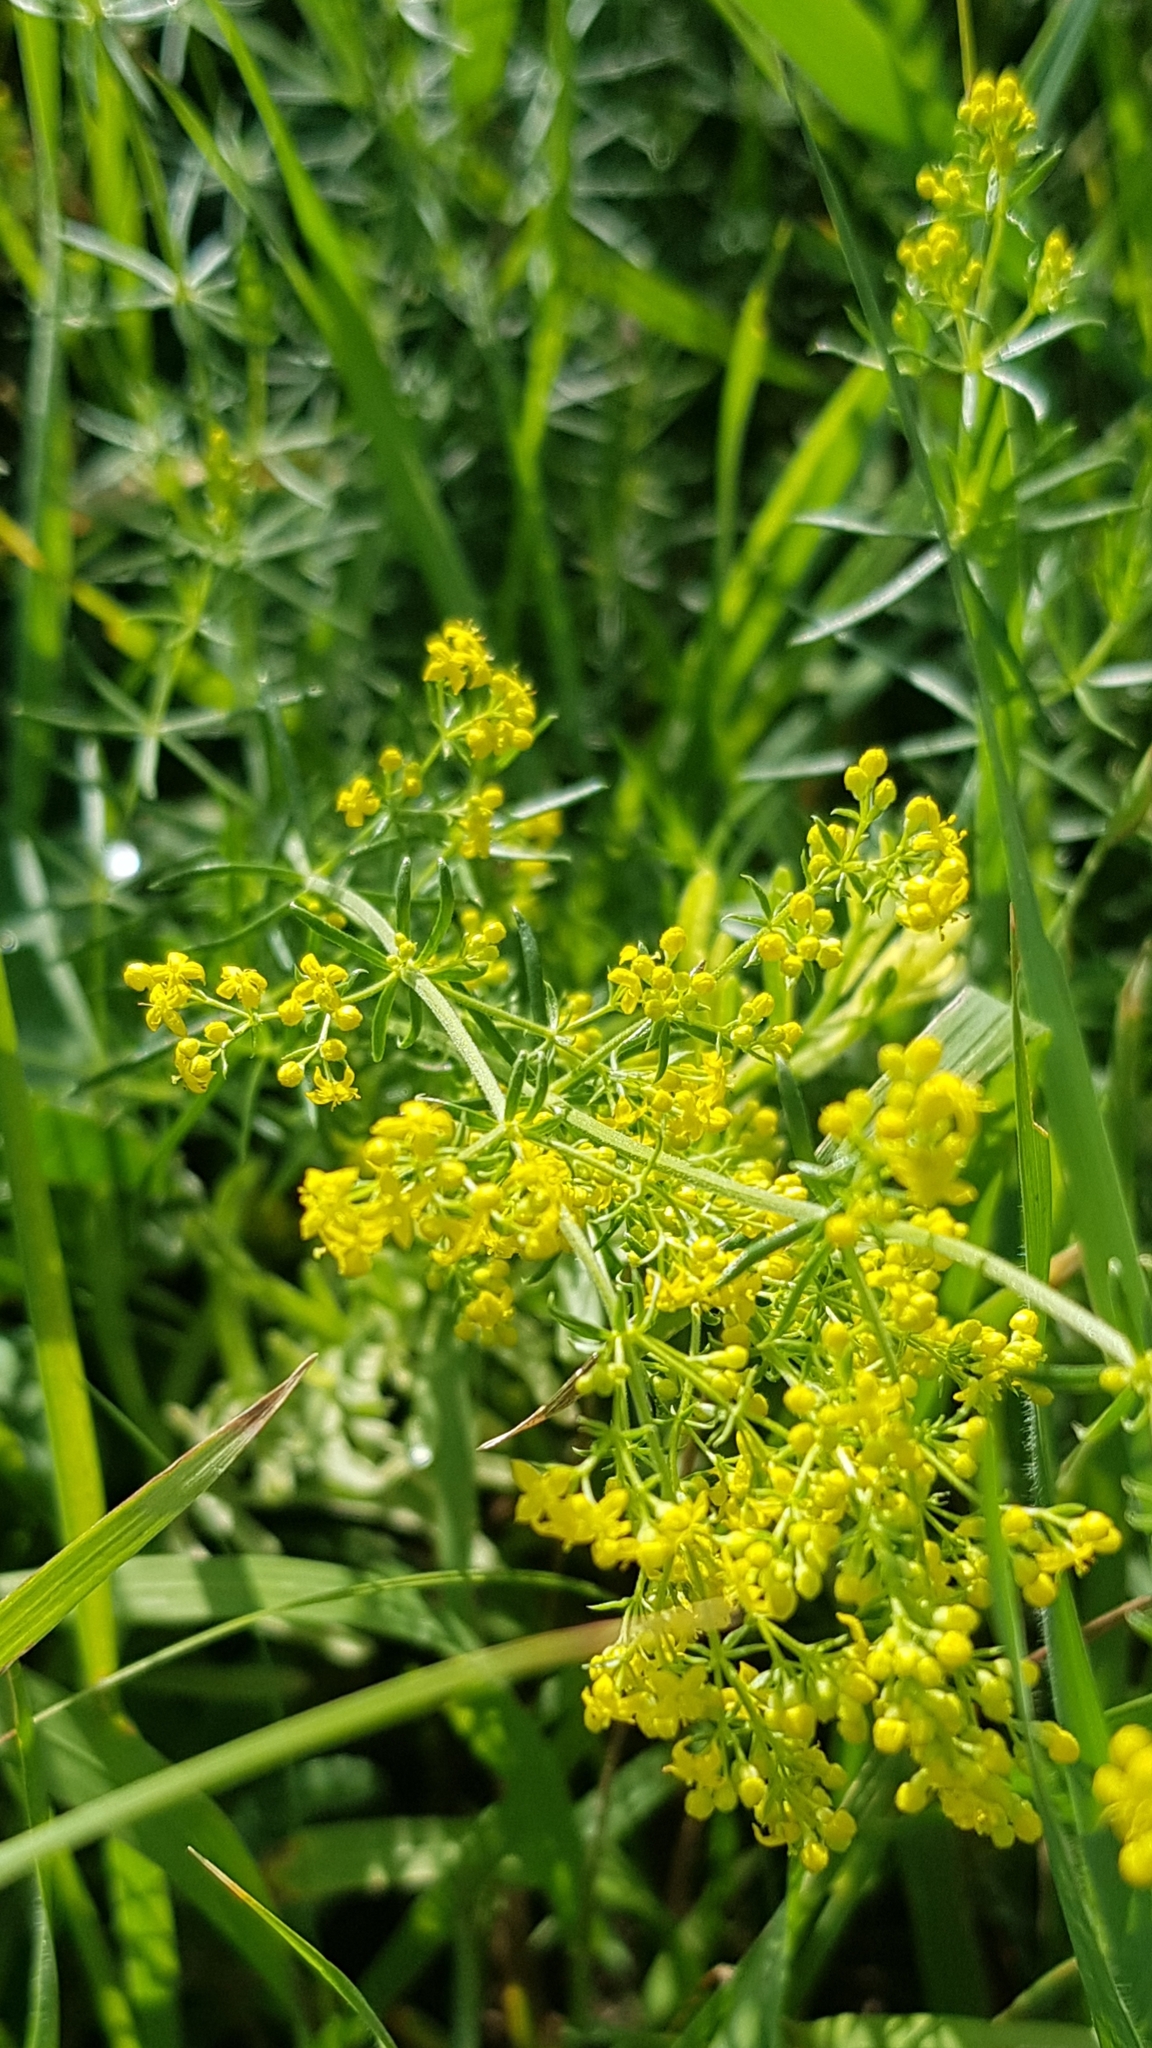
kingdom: Plantae
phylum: Tracheophyta
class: Magnoliopsida
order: Gentianales
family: Rubiaceae
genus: Galium
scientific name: Galium verum
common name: Lady's bedstraw
